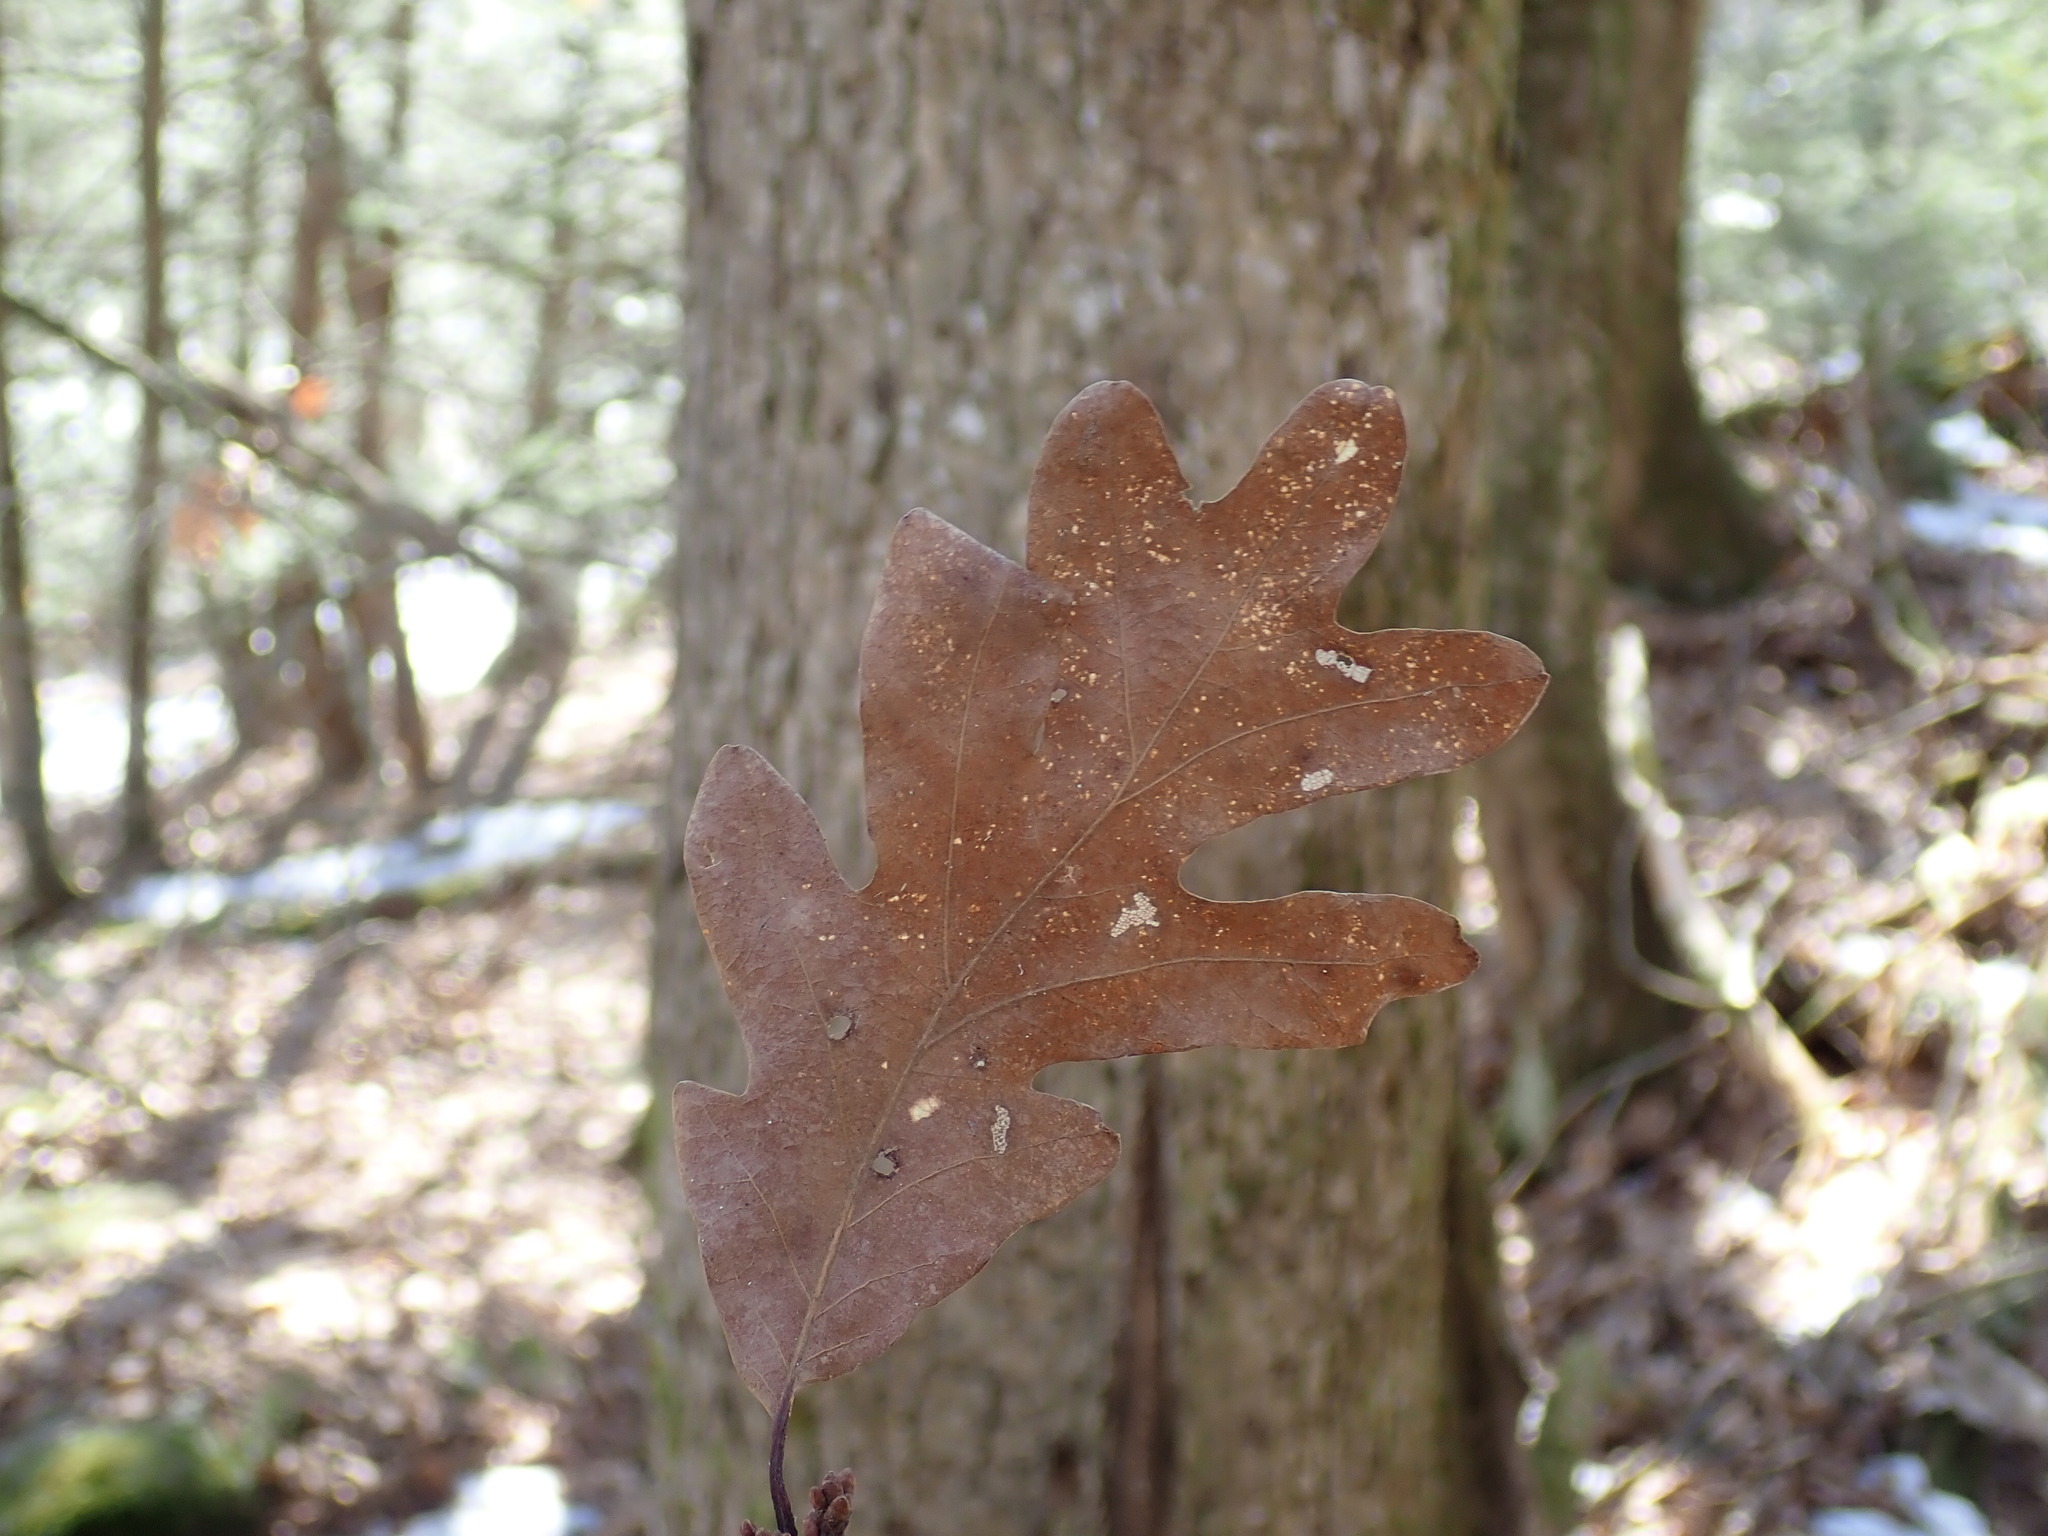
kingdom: Plantae
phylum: Tracheophyta
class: Magnoliopsida
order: Fagales
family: Fagaceae
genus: Quercus
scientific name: Quercus alba
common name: White oak
